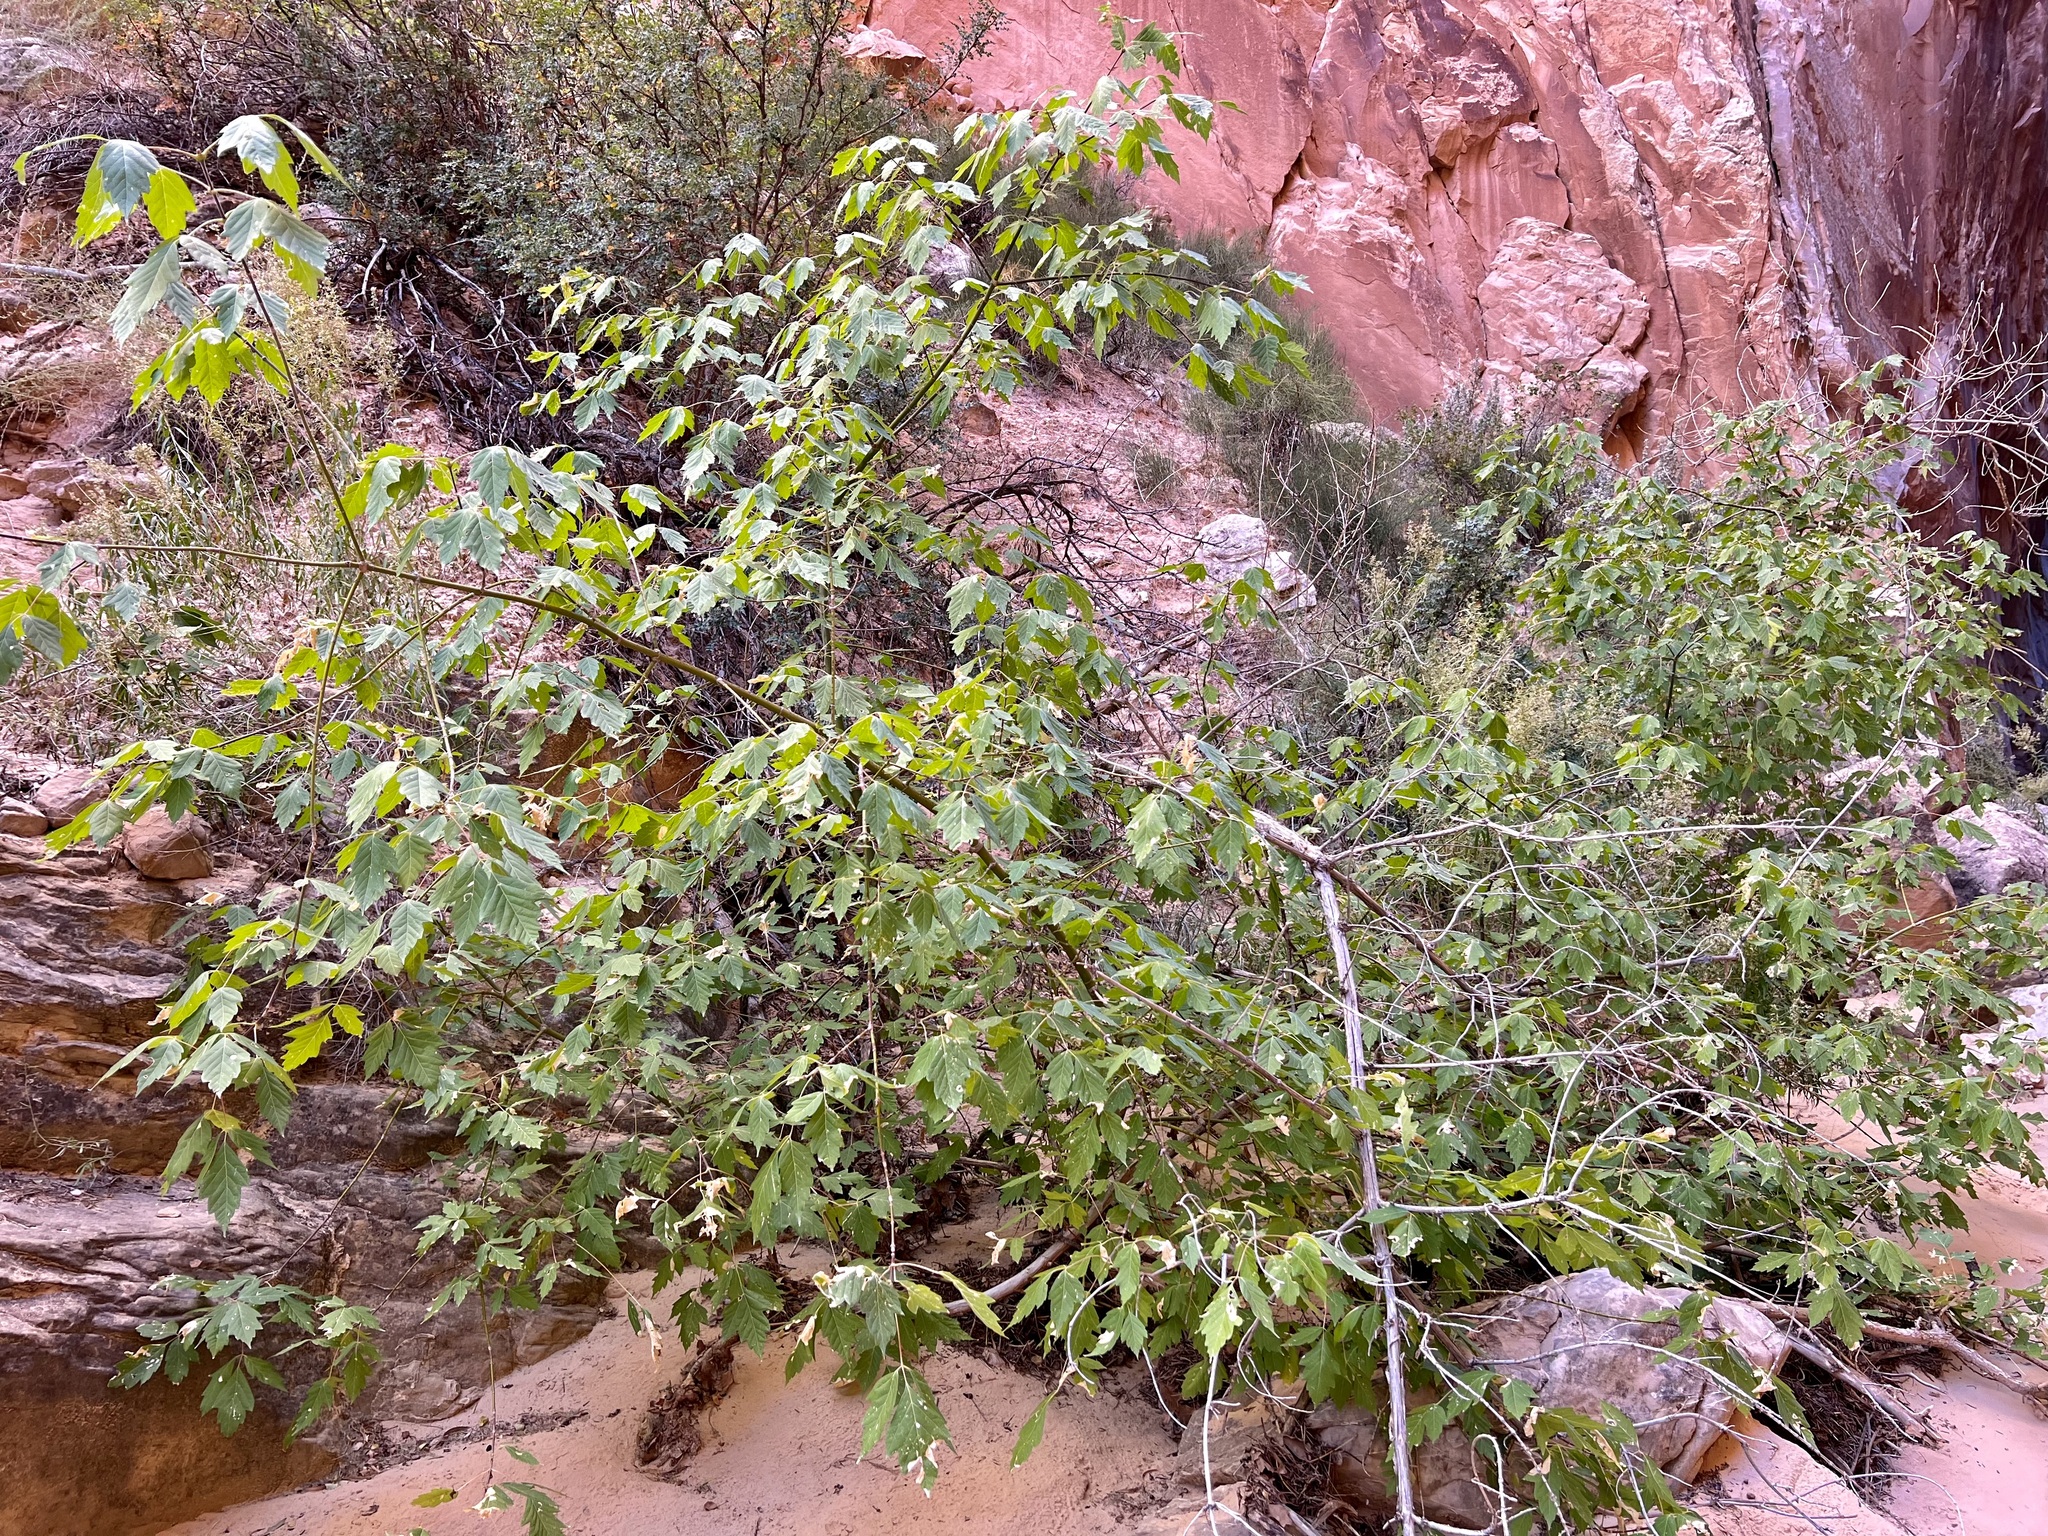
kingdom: Plantae
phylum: Tracheophyta
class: Magnoliopsida
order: Sapindales
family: Sapindaceae
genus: Acer
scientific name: Acer negundo
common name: Ashleaf maple
